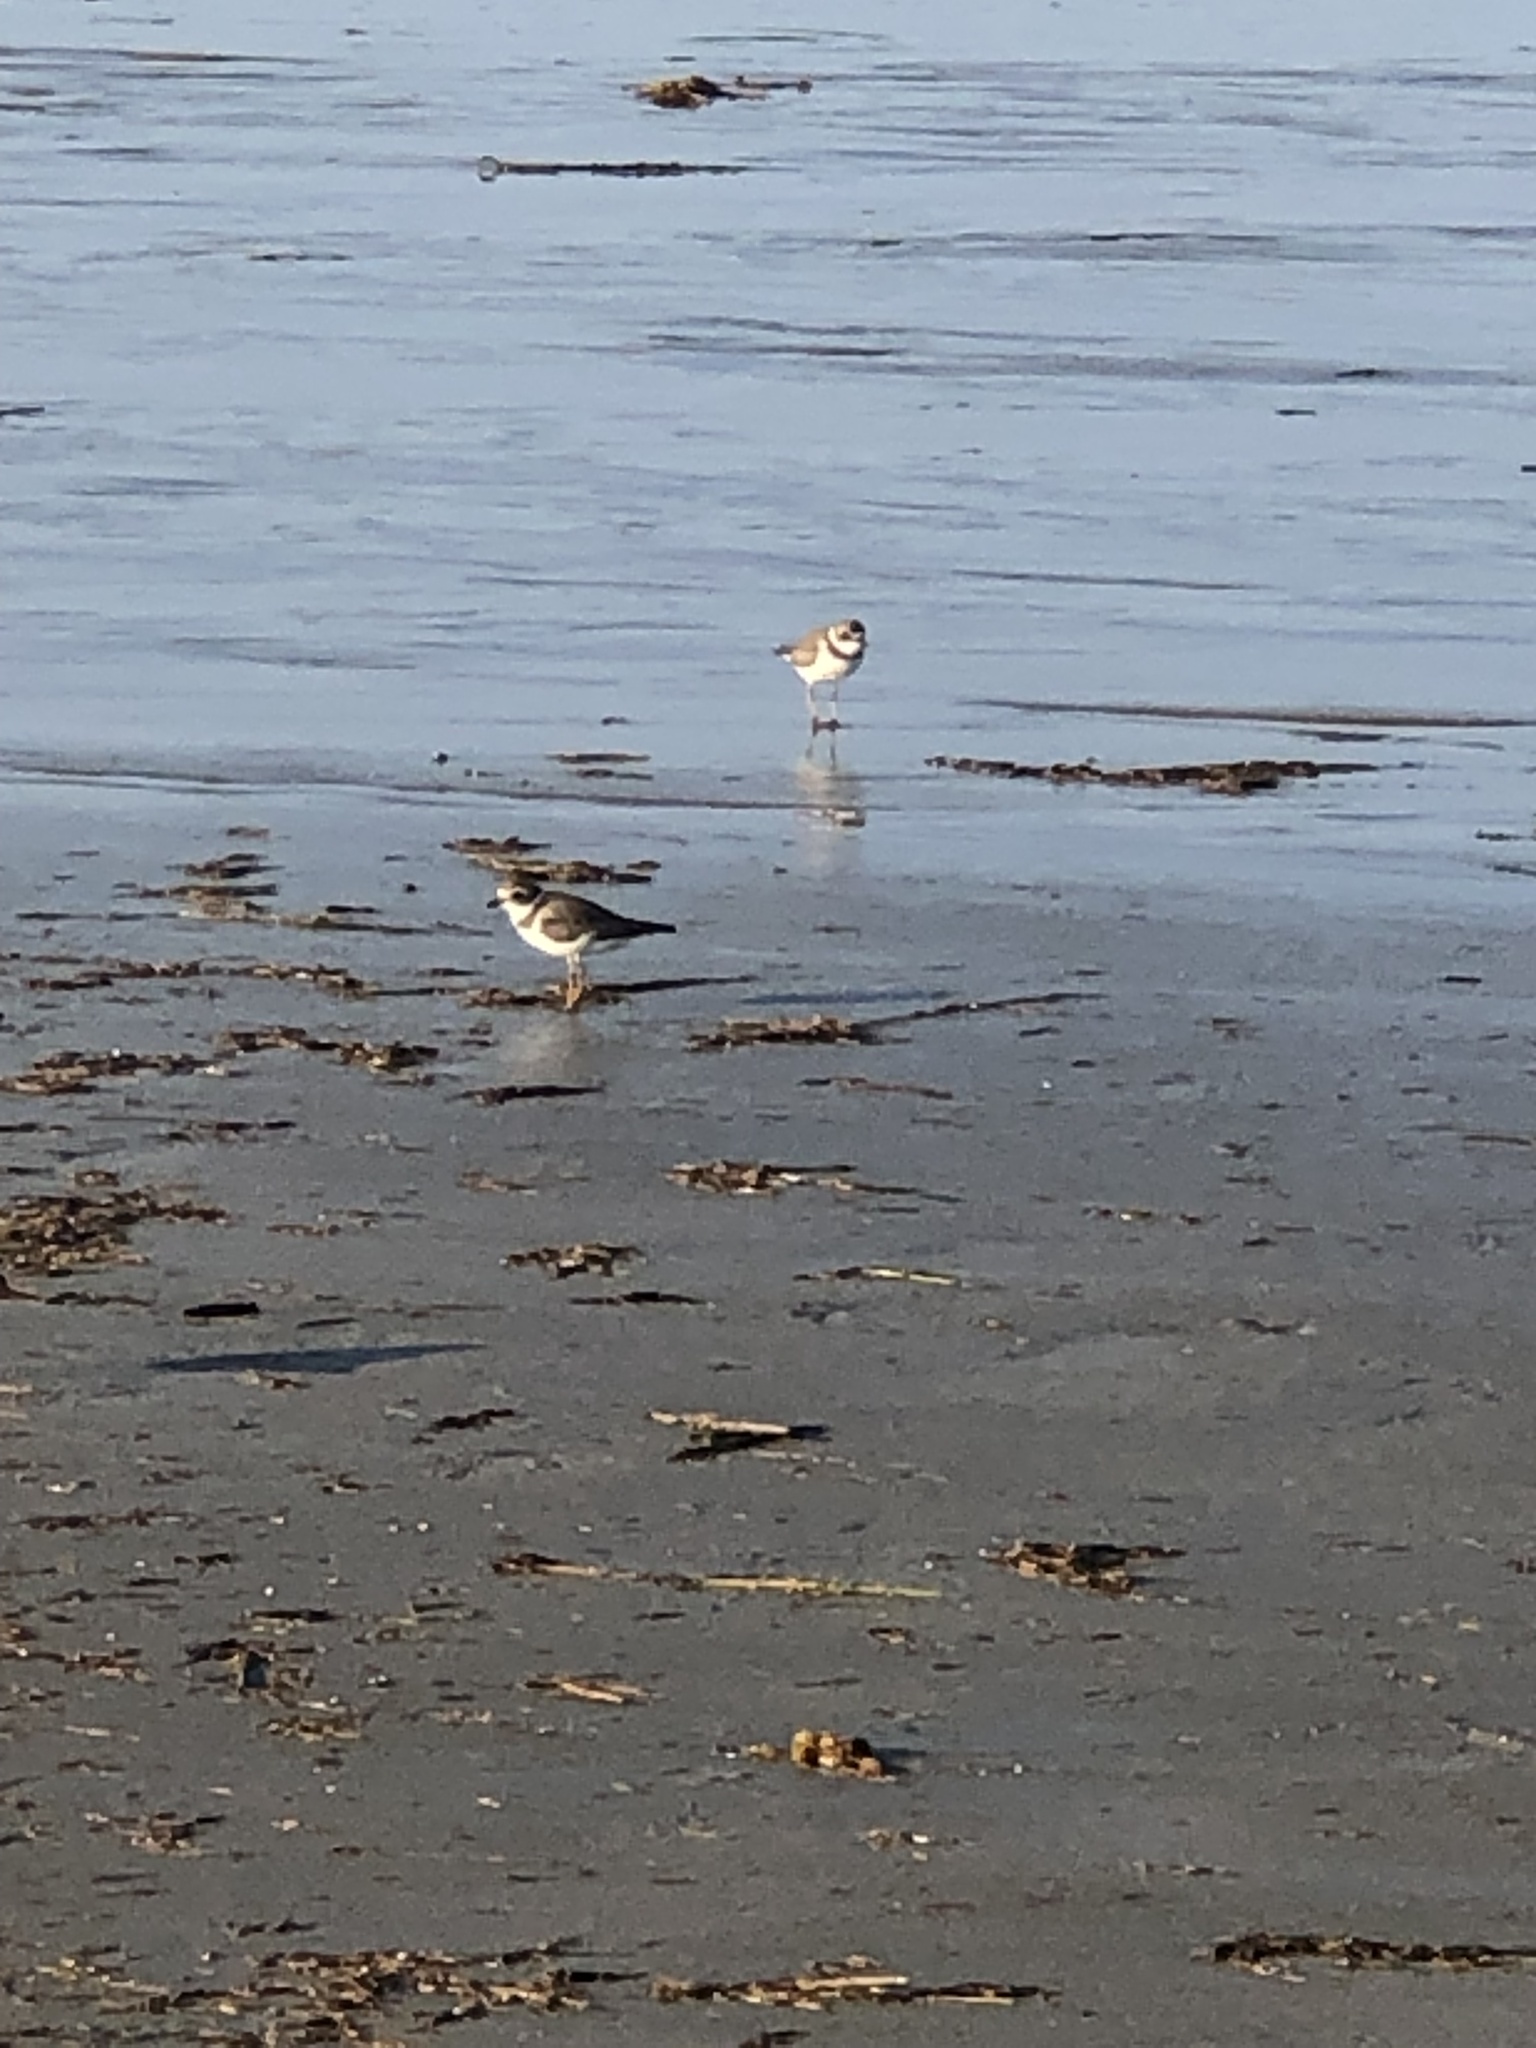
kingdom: Animalia
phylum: Chordata
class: Aves
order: Charadriiformes
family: Charadriidae
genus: Charadrius
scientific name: Charadrius semipalmatus
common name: Semipalmated plover
